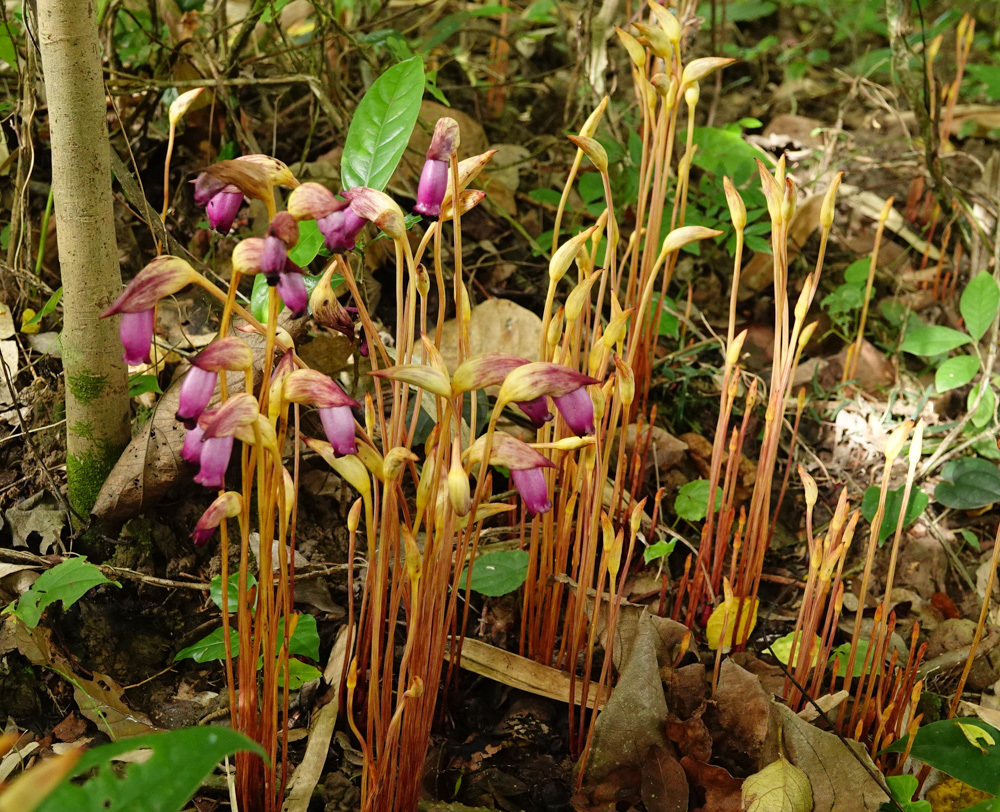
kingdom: Plantae
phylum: Tracheophyta
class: Magnoliopsida
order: Lamiales
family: Orobanchaceae
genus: Aeginetia
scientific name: Aeginetia indica
